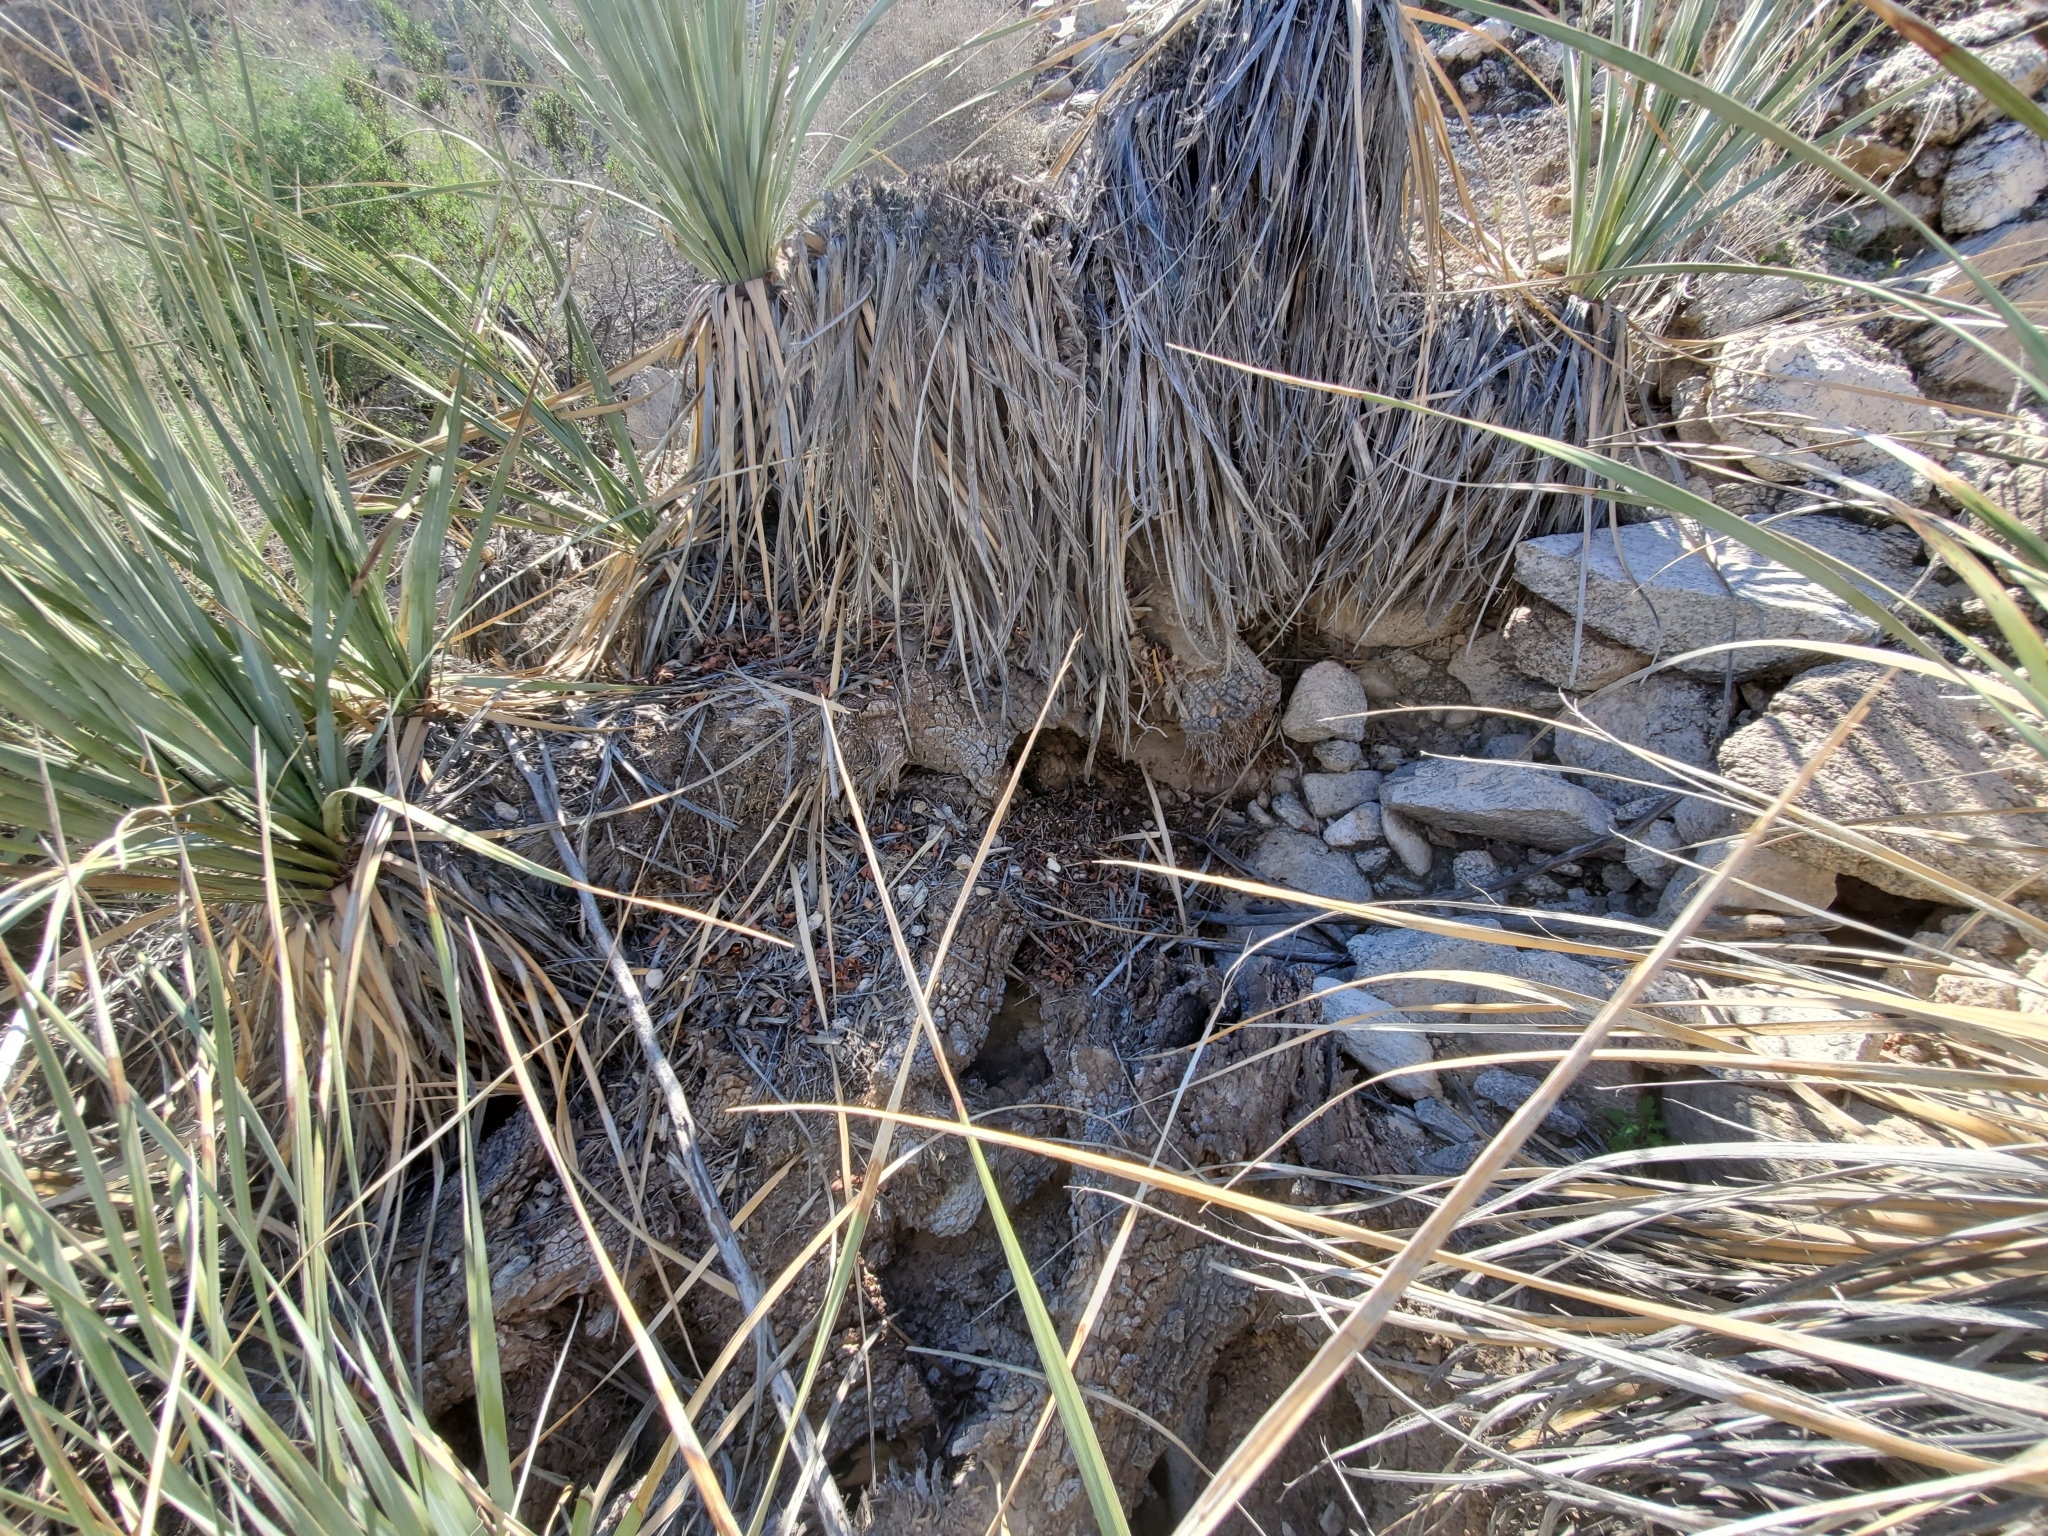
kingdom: Plantae
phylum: Tracheophyta
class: Liliopsida
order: Asparagales
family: Asparagaceae
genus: Nolina
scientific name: Nolina bigelovii
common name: Bigelow bear-grass
